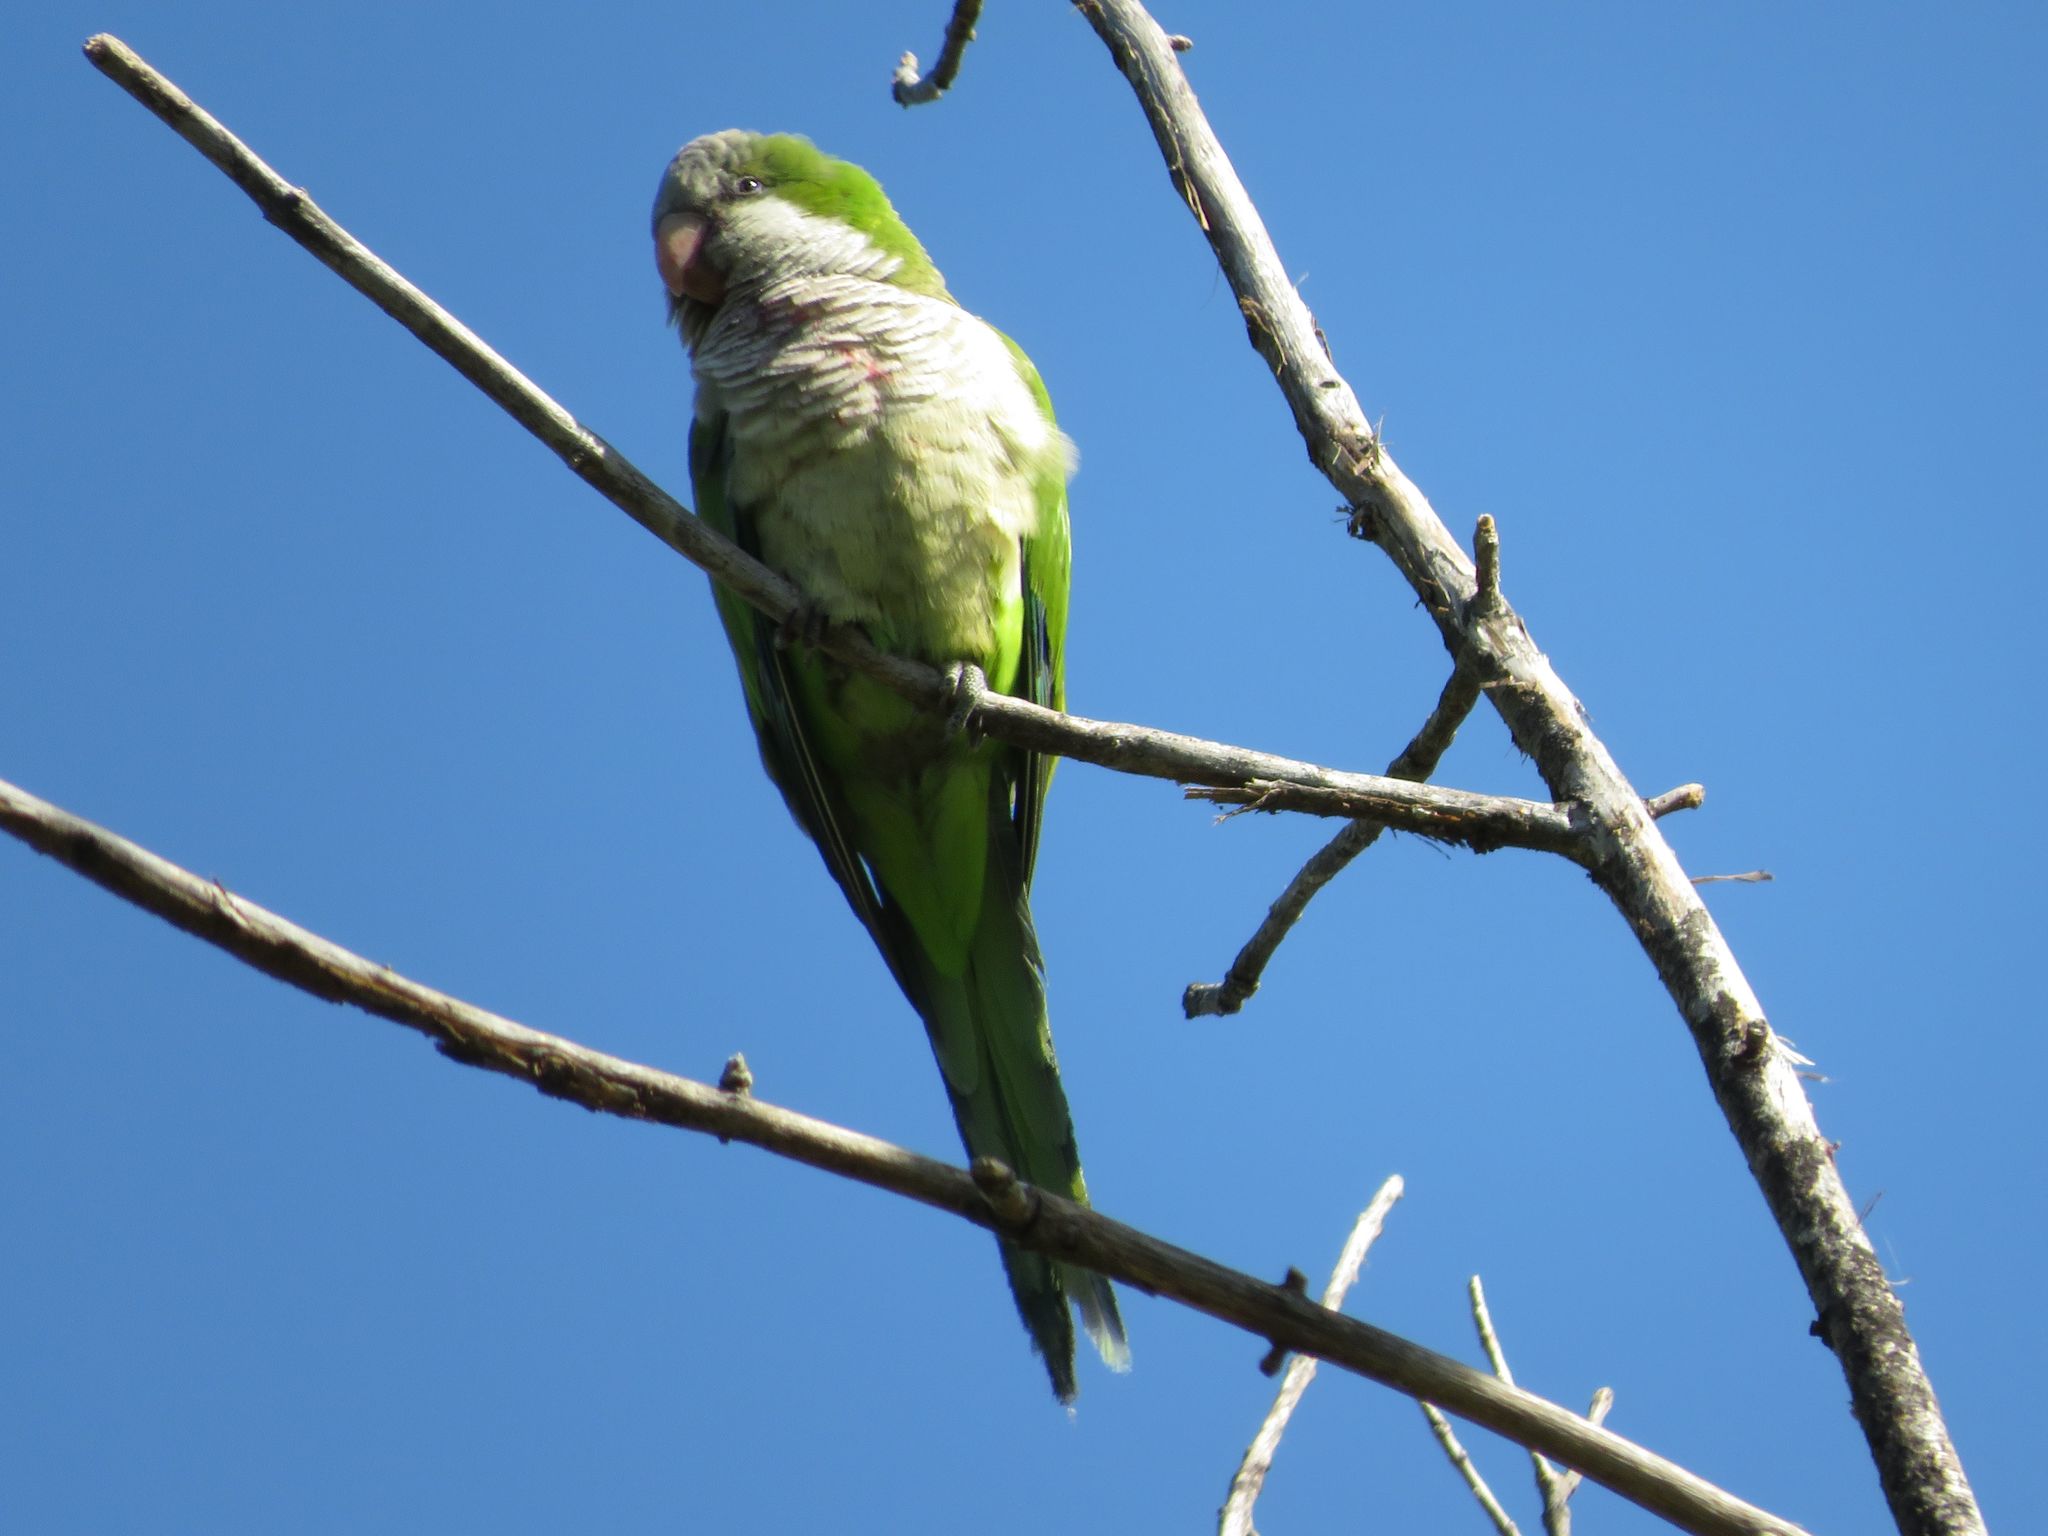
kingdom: Animalia
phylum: Chordata
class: Aves
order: Psittaciformes
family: Psittacidae
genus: Myiopsitta
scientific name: Myiopsitta monachus
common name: Monk parakeet
